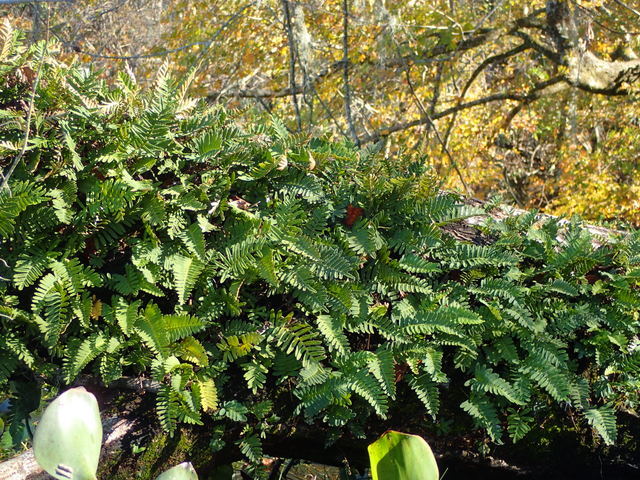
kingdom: Plantae
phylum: Tracheophyta
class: Polypodiopsida
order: Polypodiales
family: Polypodiaceae
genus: Pleopeltis
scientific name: Pleopeltis michauxiana
